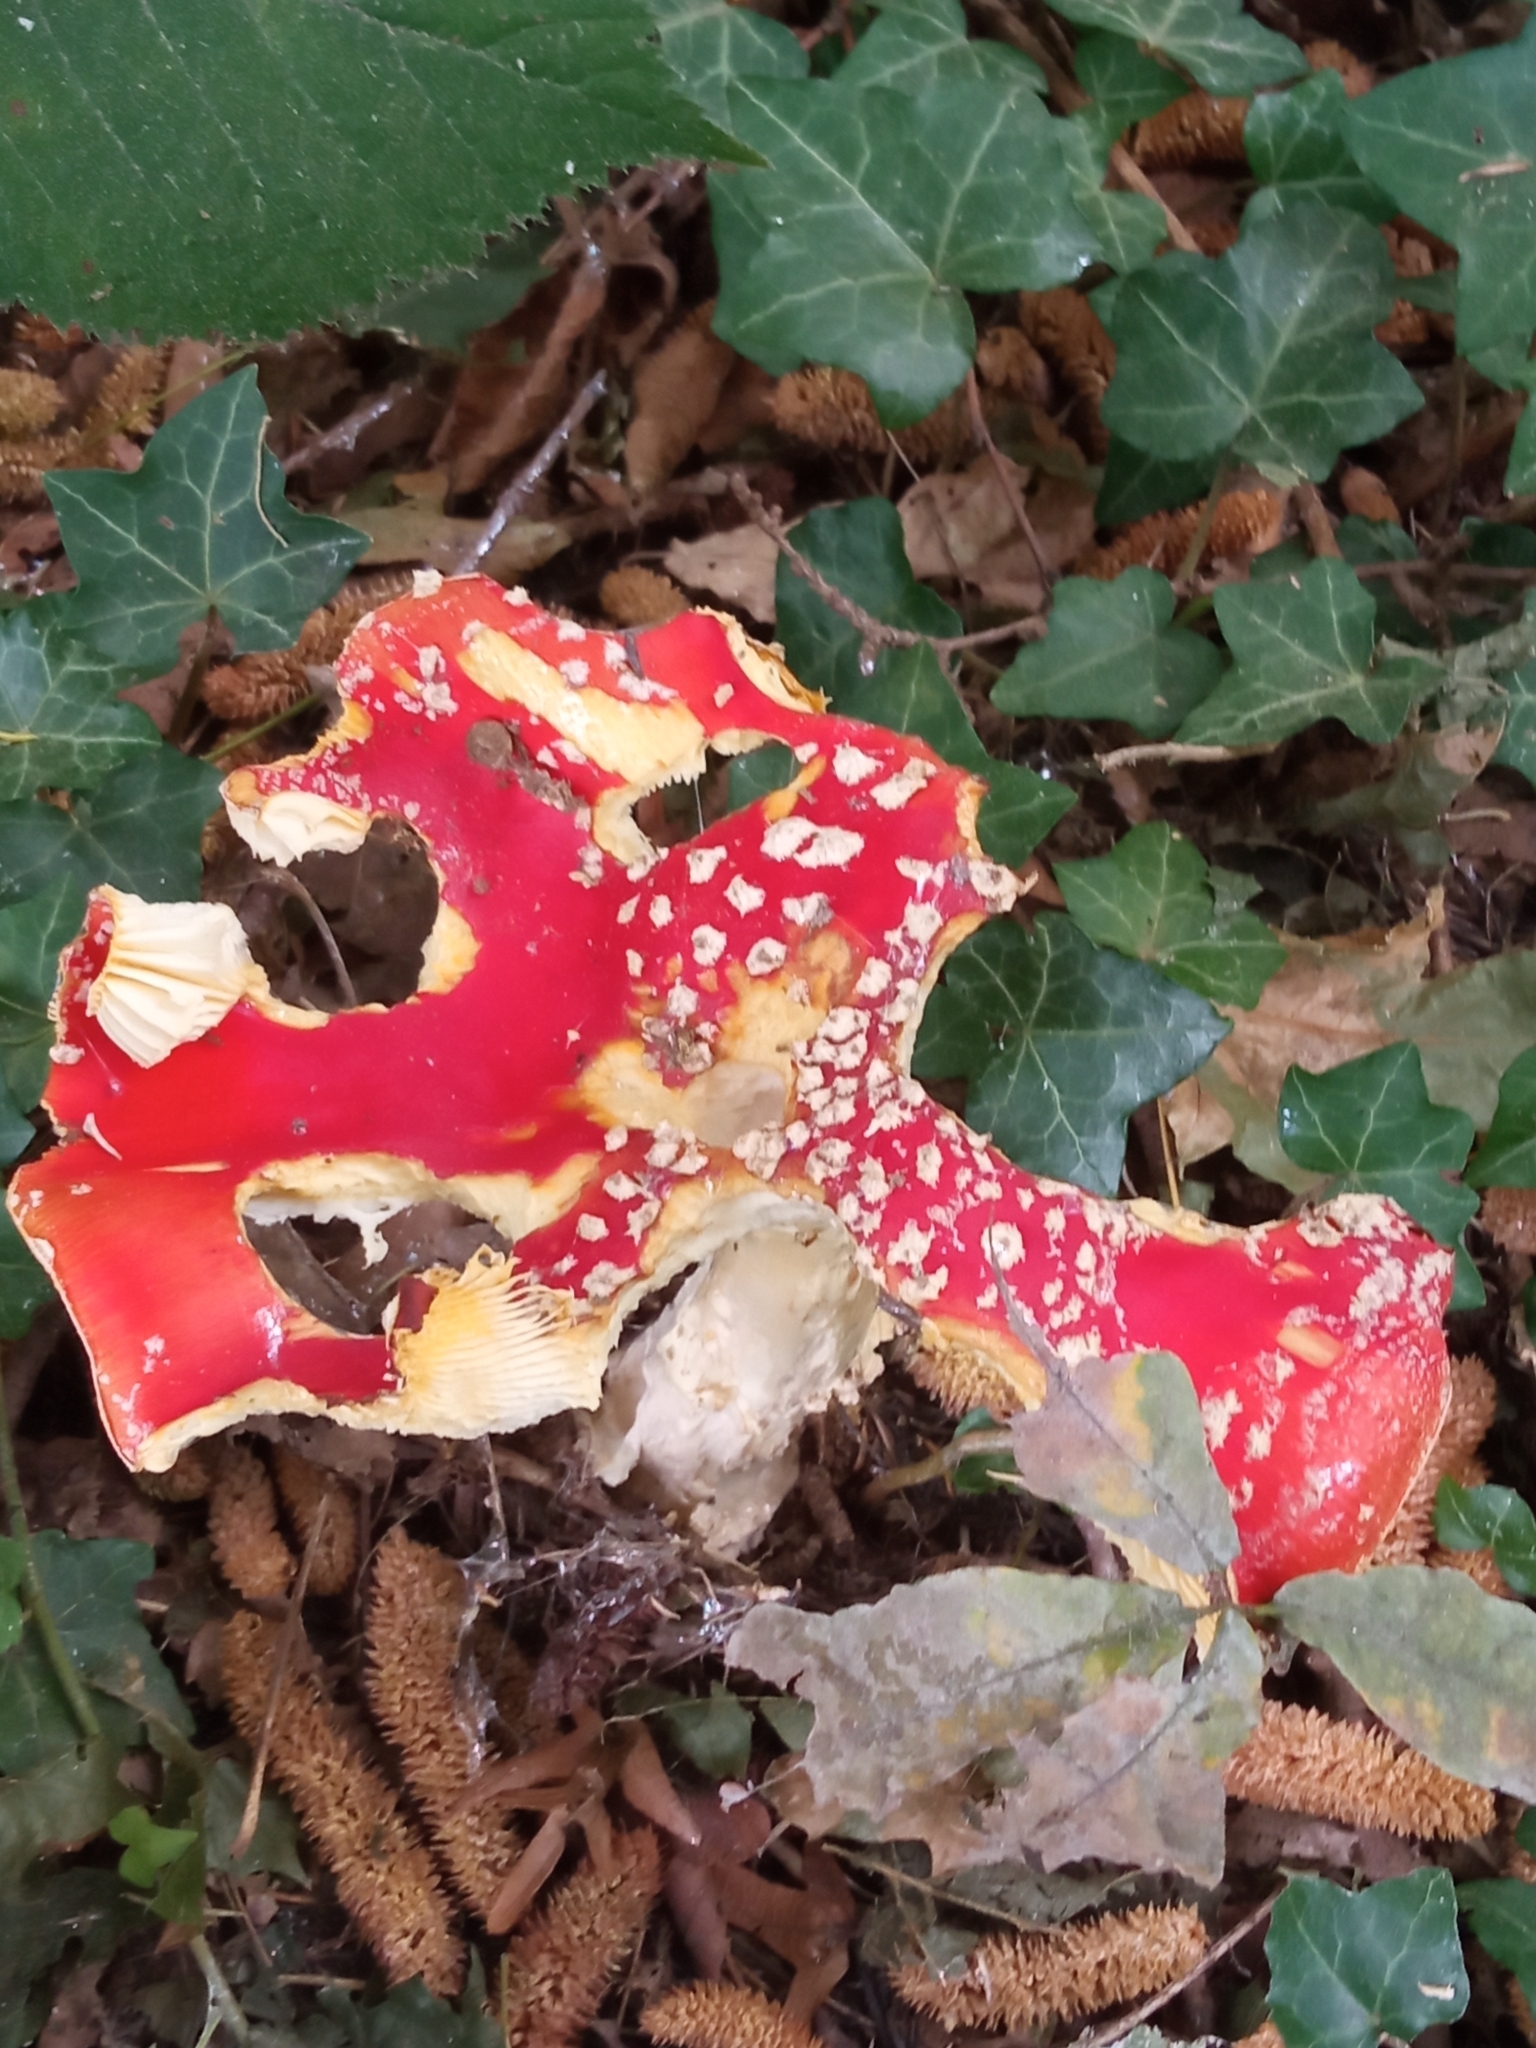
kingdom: Fungi
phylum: Basidiomycota
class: Agaricomycetes
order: Agaricales
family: Amanitaceae
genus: Amanita
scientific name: Amanita muscaria
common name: Fly agaric
